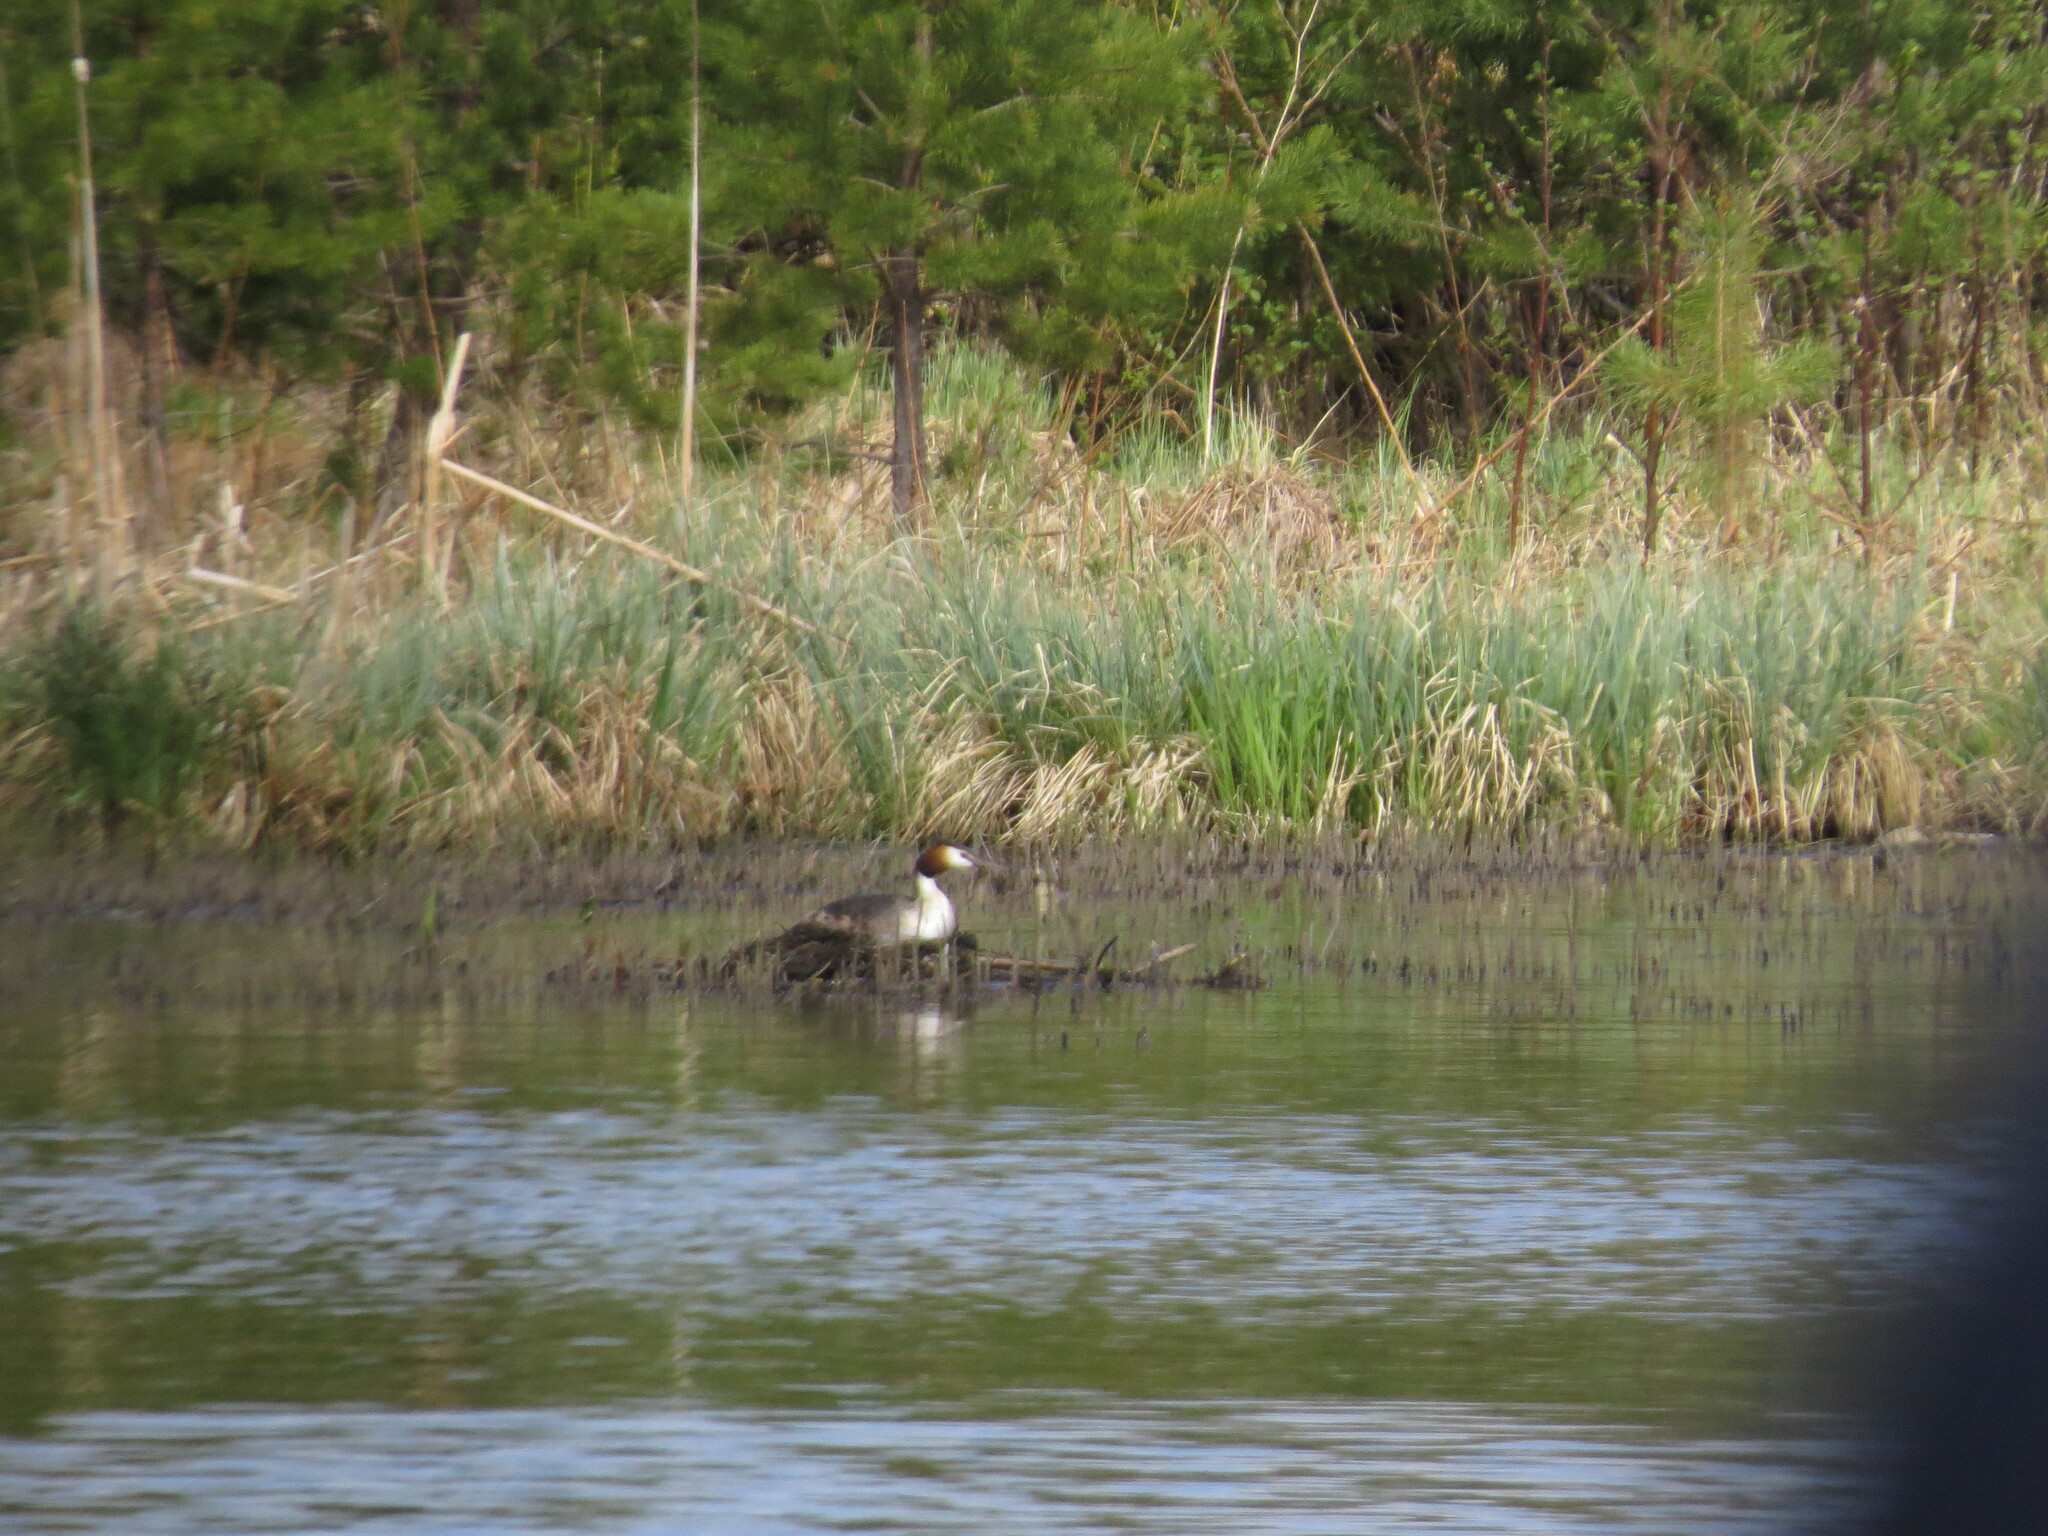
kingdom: Animalia
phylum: Chordata
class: Aves
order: Podicipediformes
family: Podicipedidae
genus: Podiceps
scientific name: Podiceps cristatus
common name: Great crested grebe
